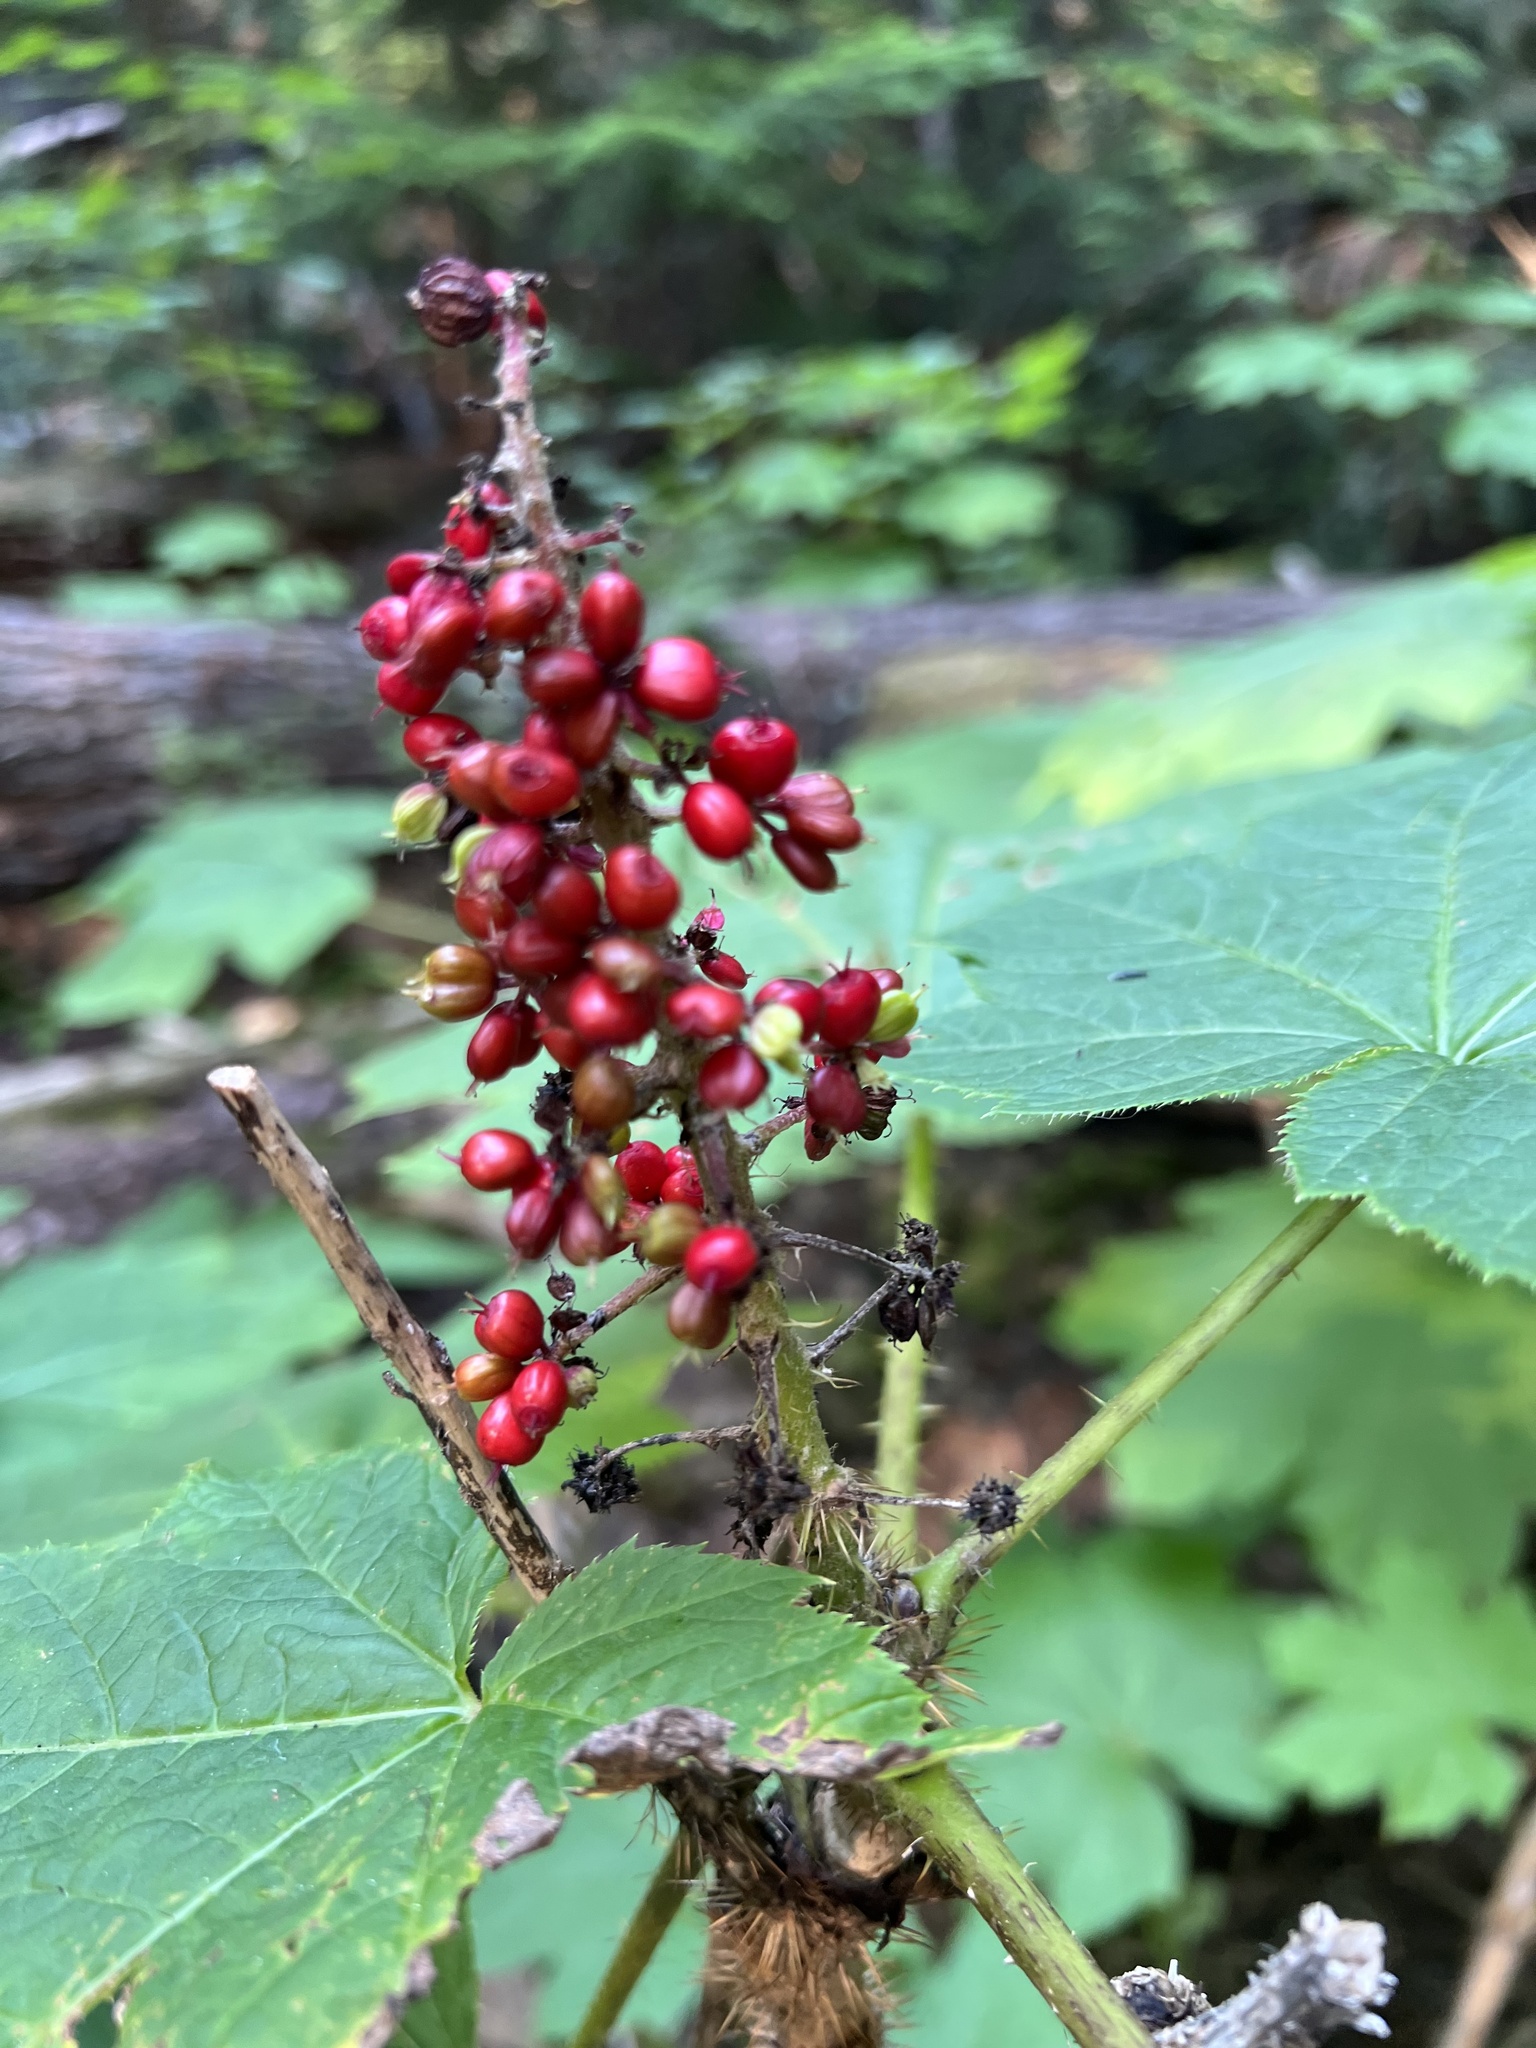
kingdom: Plantae
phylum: Tracheophyta
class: Magnoliopsida
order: Apiales
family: Araliaceae
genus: Oplopanax
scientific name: Oplopanax horridus
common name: Devil's walking-stick
